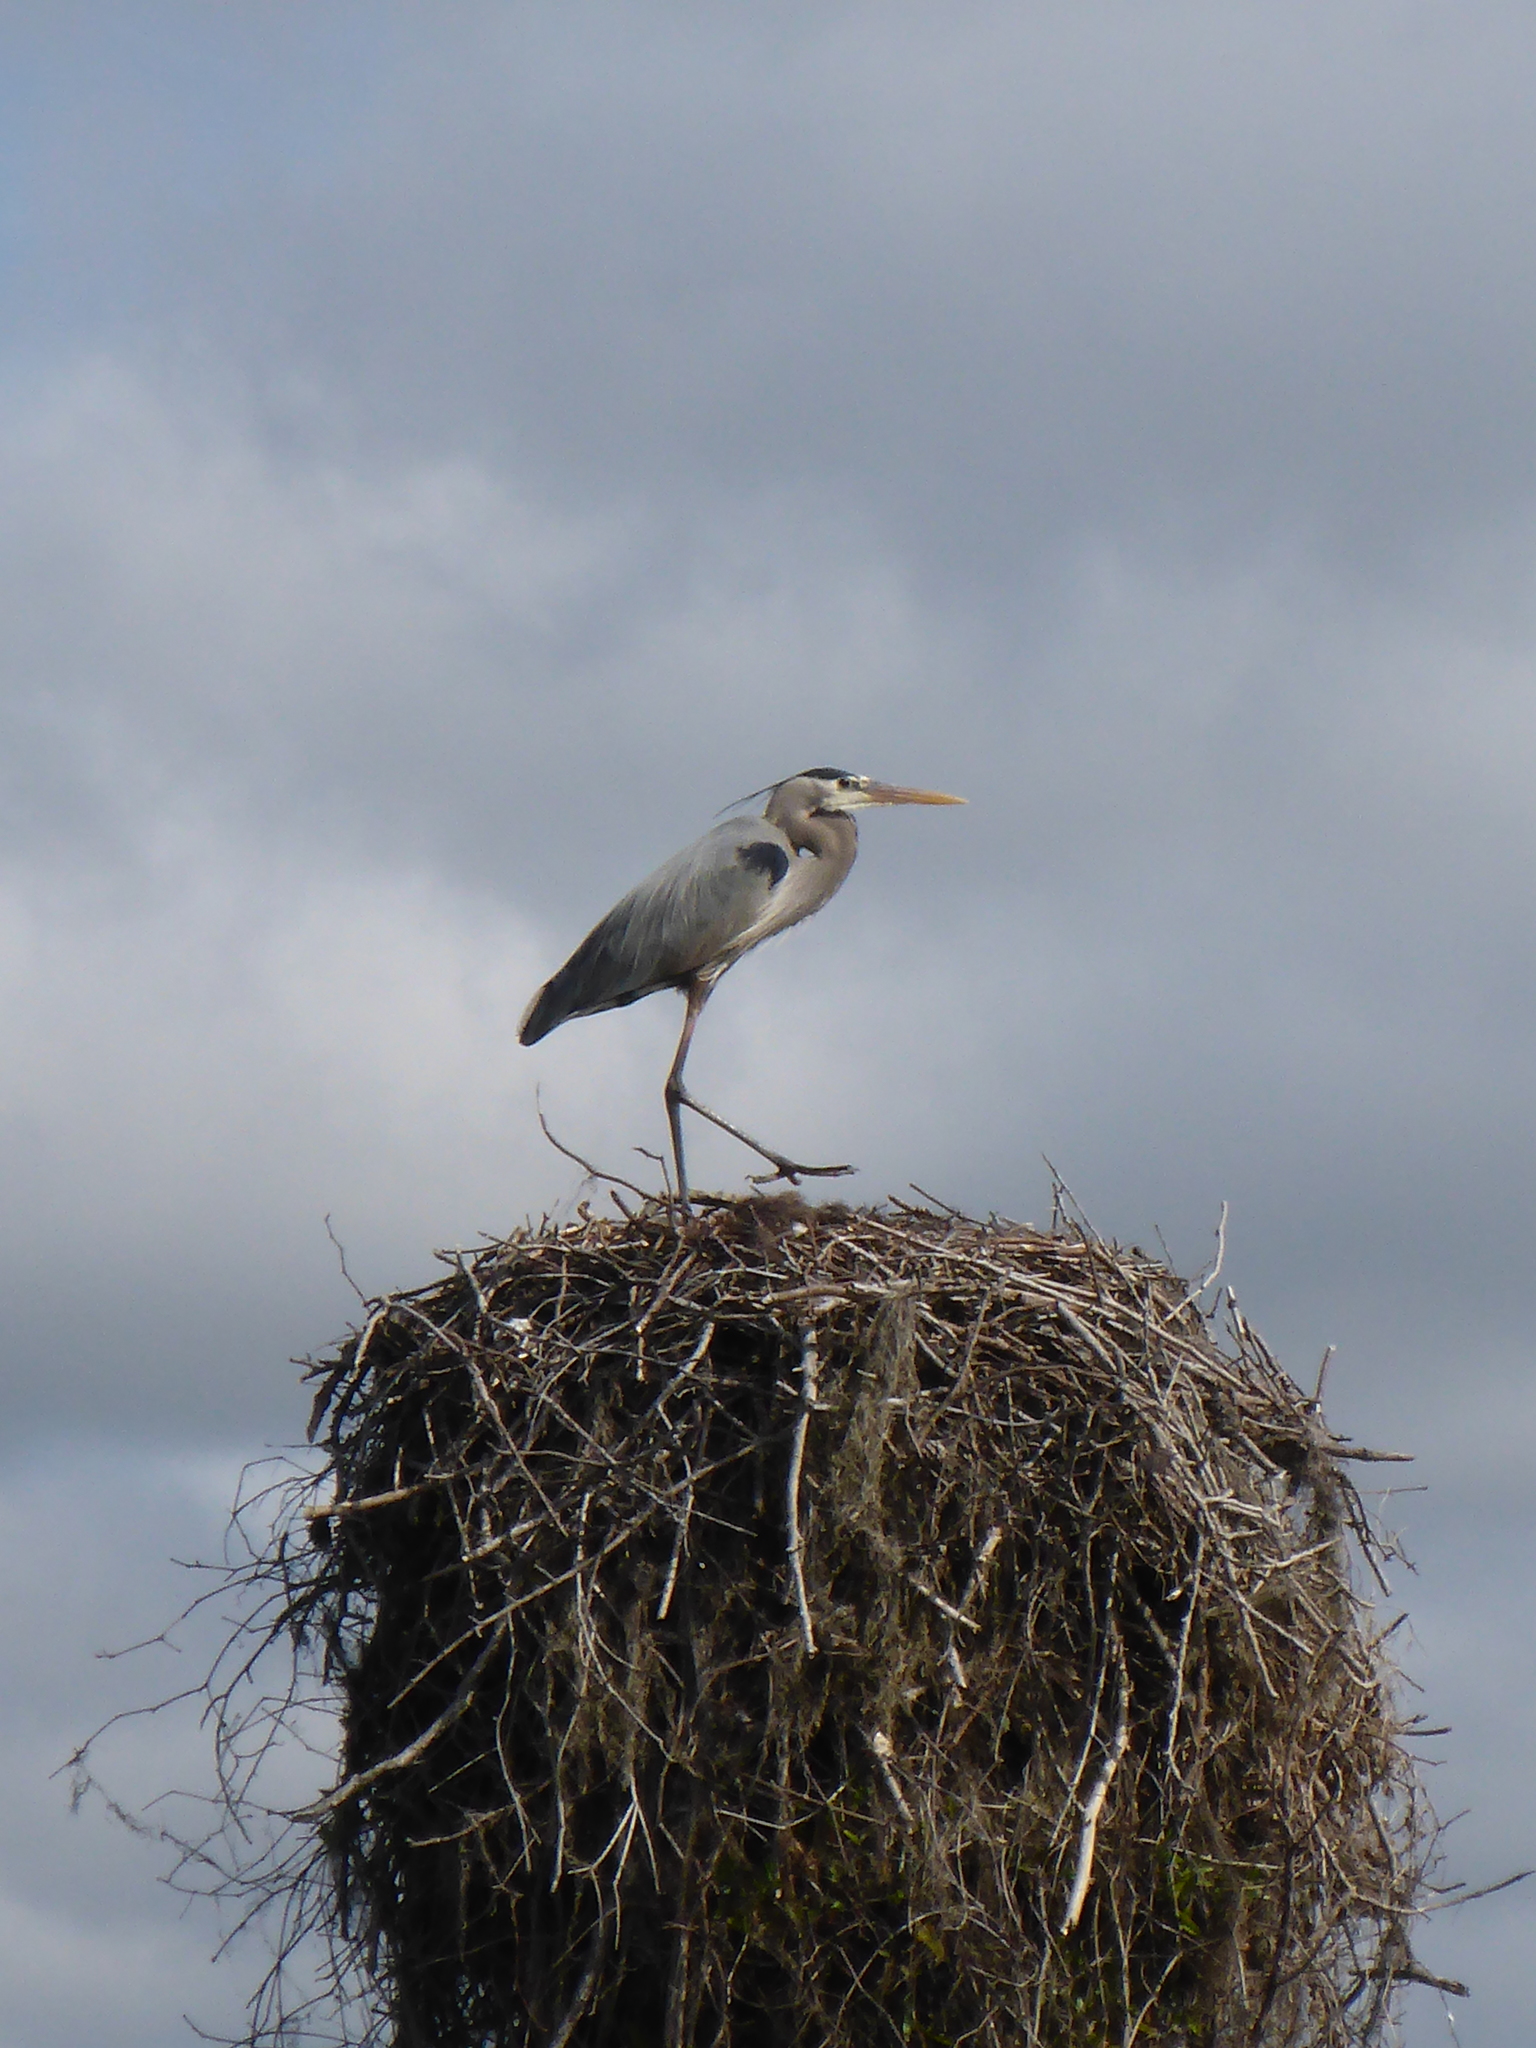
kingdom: Animalia
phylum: Chordata
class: Aves
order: Pelecaniformes
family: Ardeidae
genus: Ardea
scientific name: Ardea herodias
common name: Great blue heron
